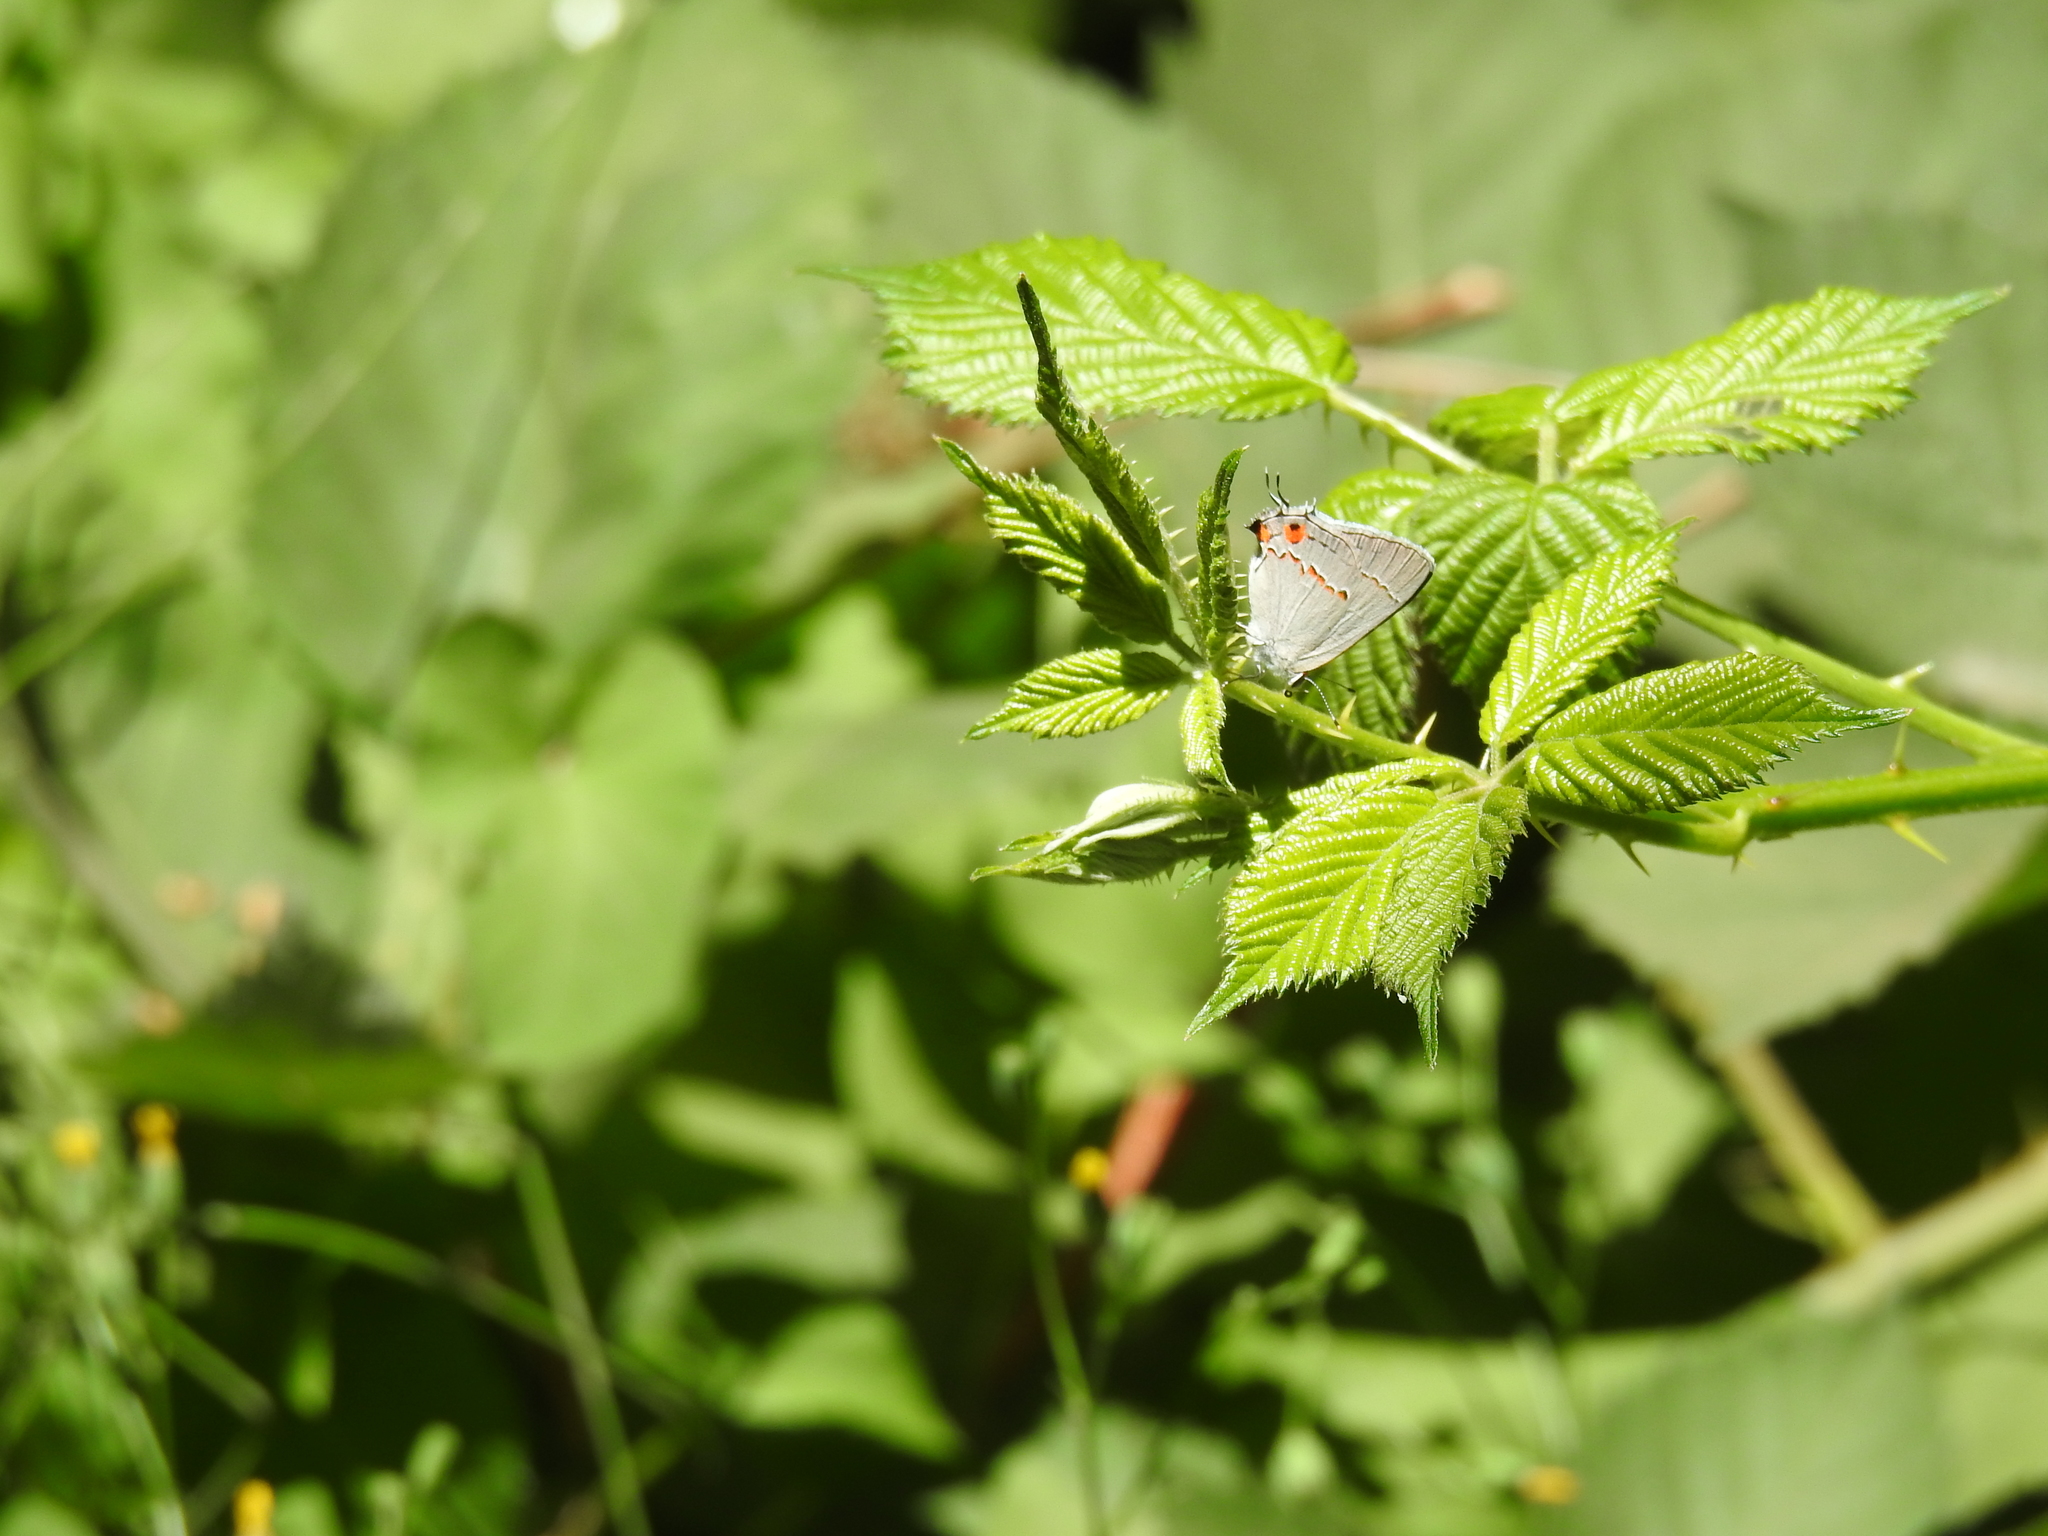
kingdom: Animalia
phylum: Arthropoda
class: Insecta
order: Lepidoptera
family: Lycaenidae
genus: Strymon
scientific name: Strymon melinus
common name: Gray hairstreak
